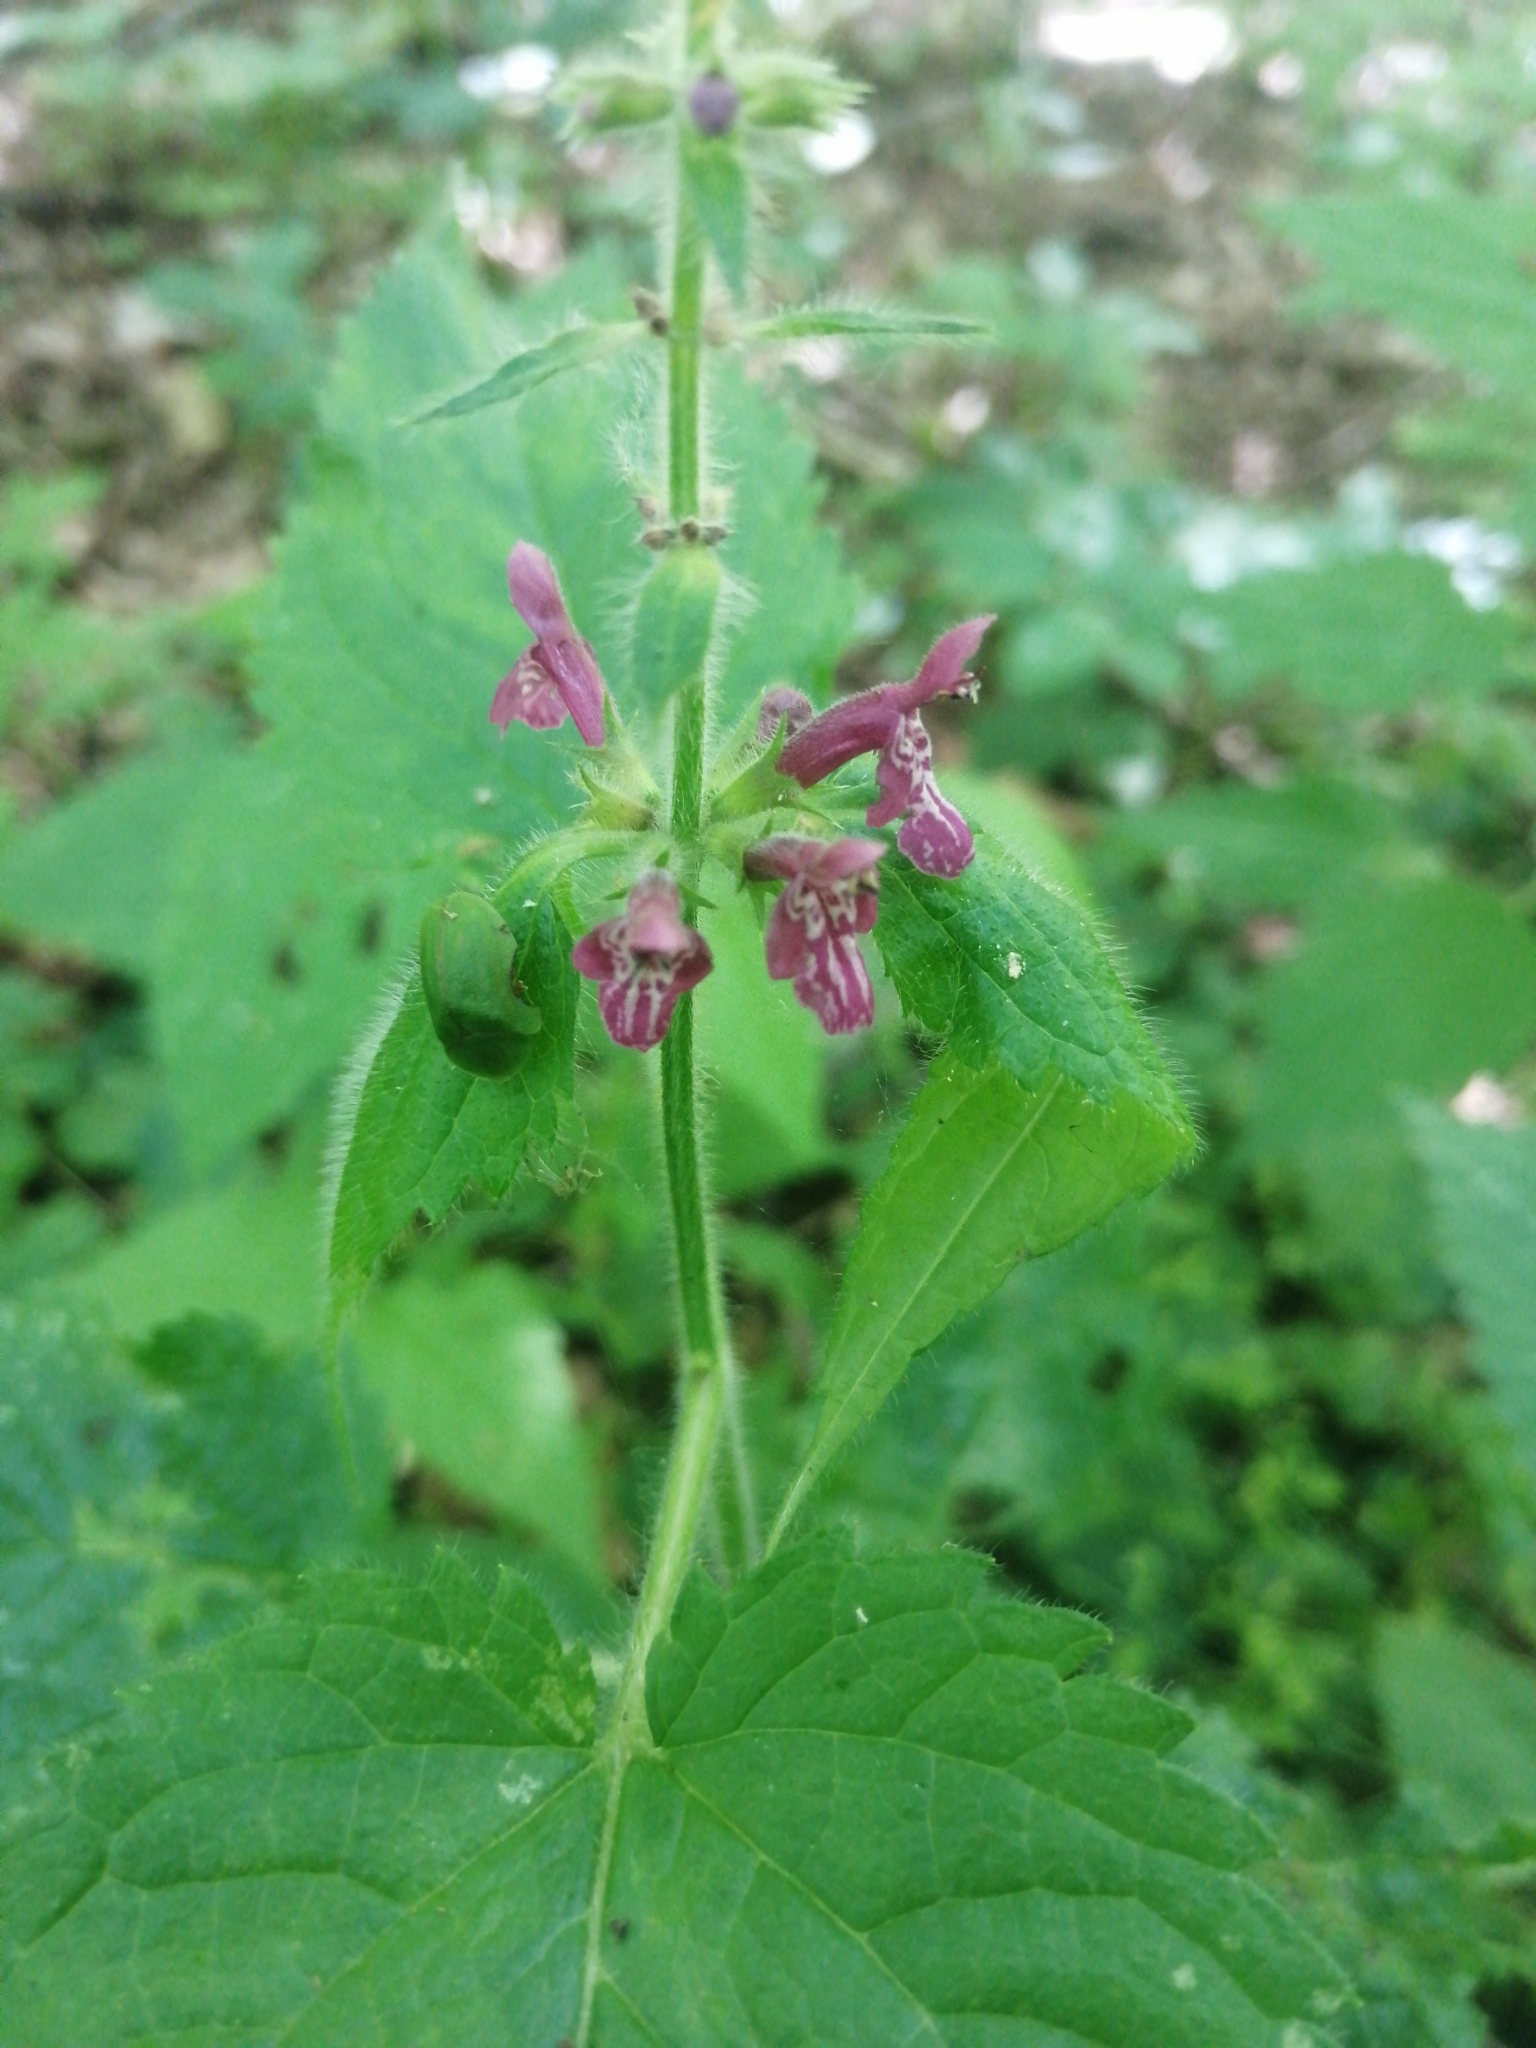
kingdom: Plantae
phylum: Tracheophyta
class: Magnoliopsida
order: Lamiales
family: Lamiaceae
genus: Stachys
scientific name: Stachys sylvatica
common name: Hedge woundwort
